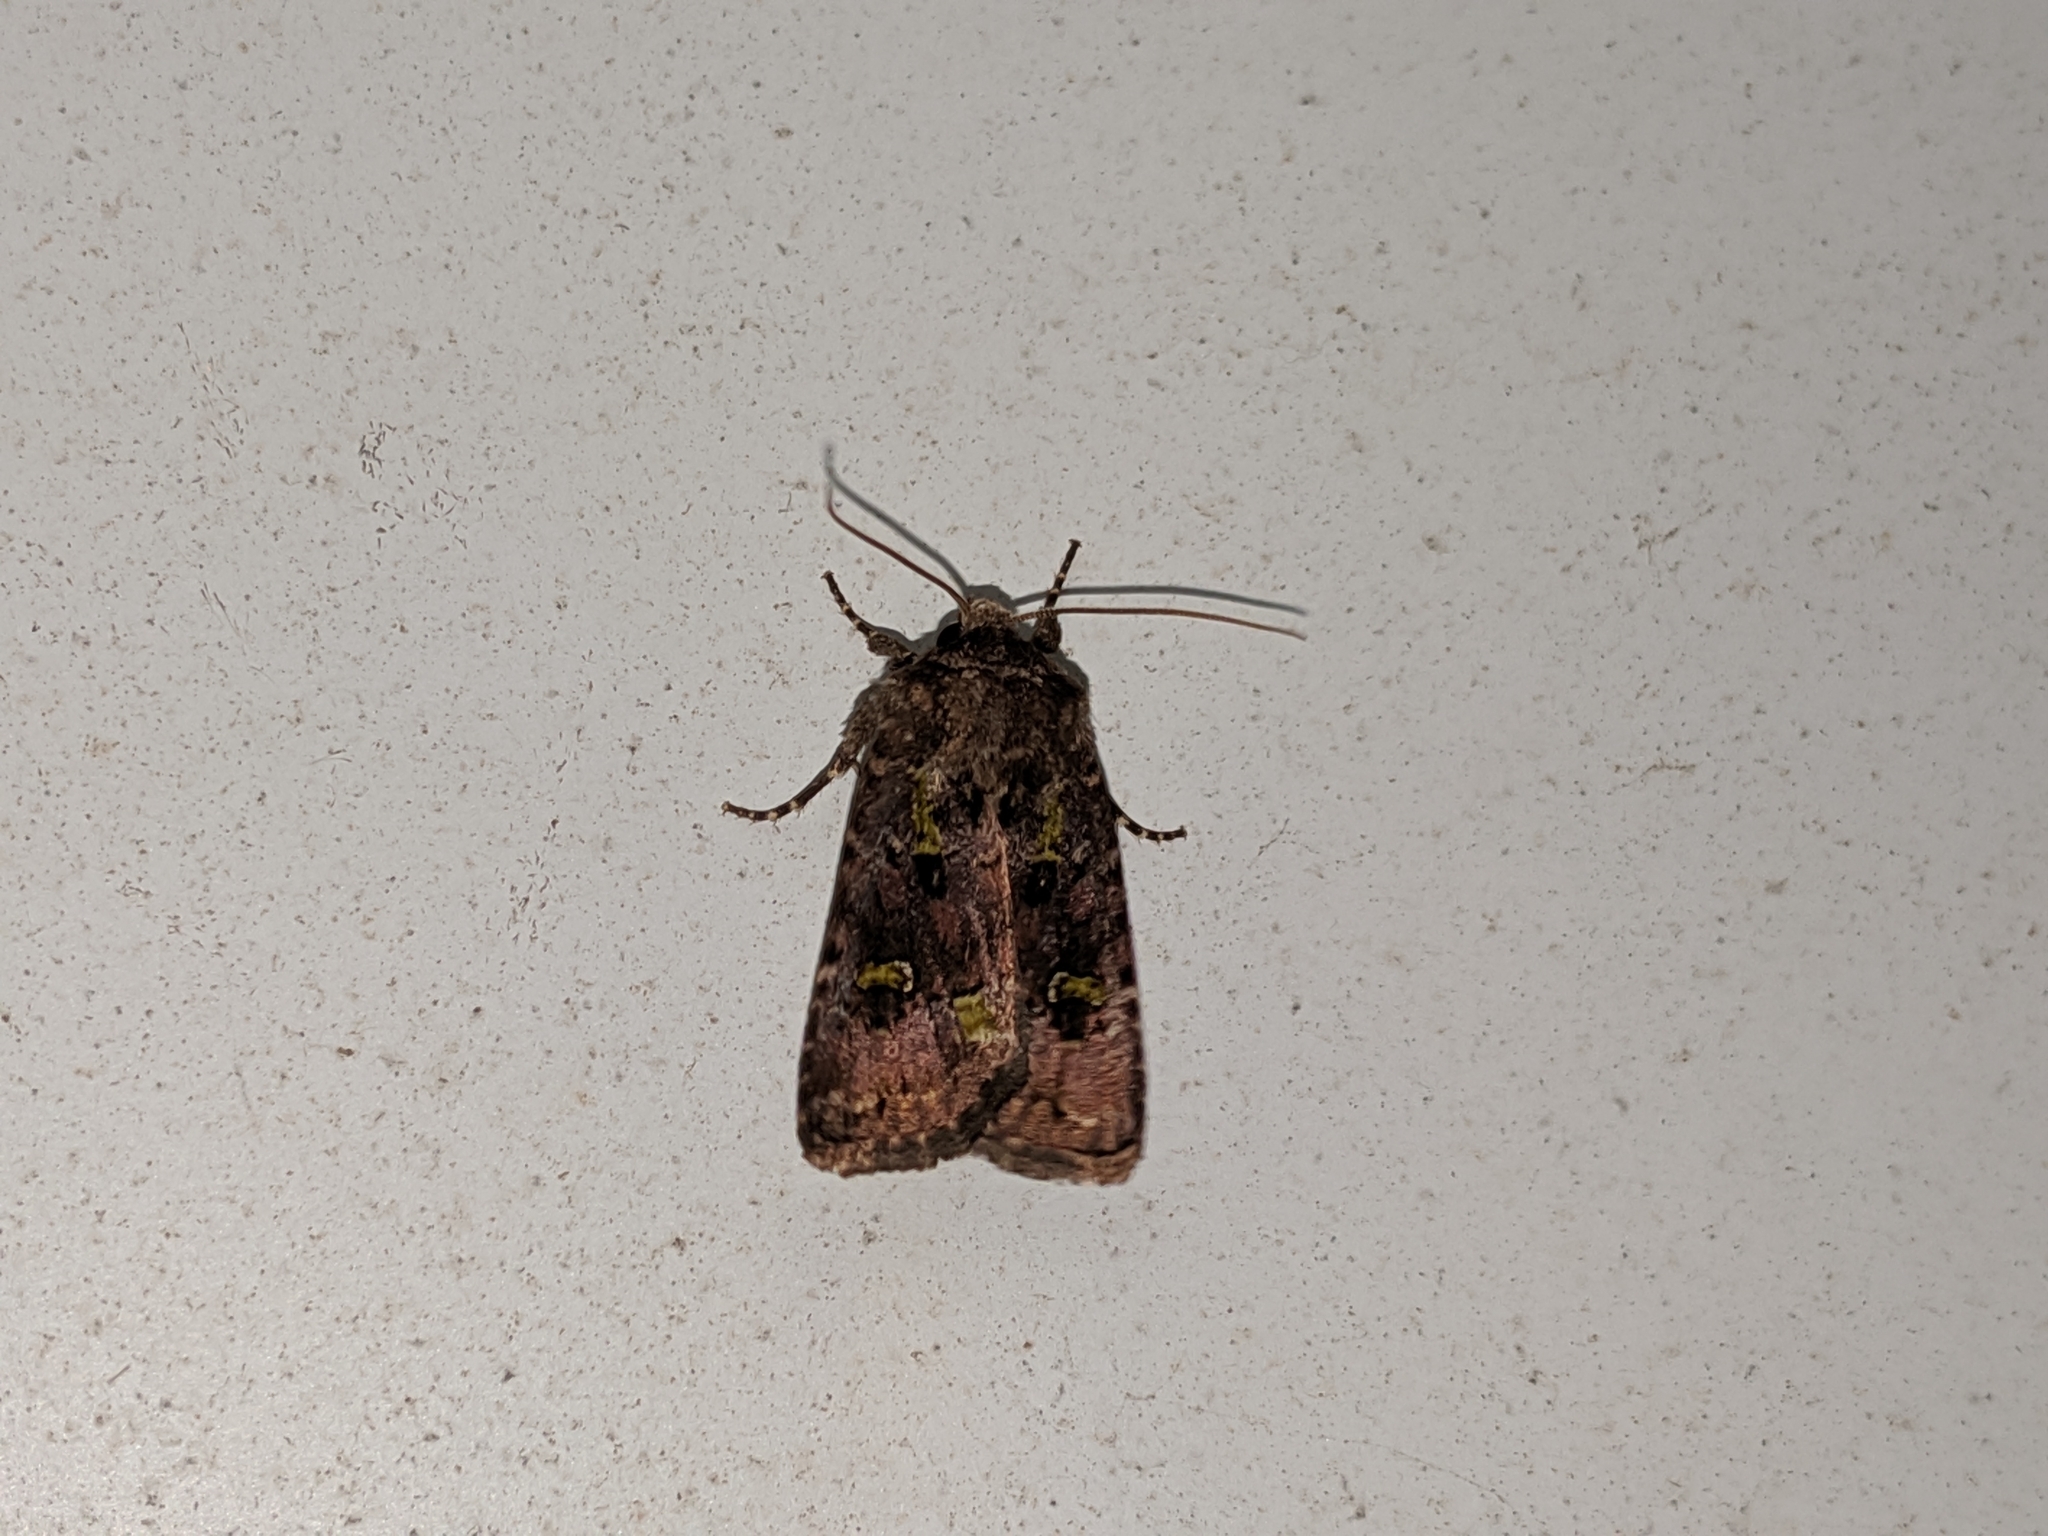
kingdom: Animalia
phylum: Arthropoda
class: Insecta
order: Lepidoptera
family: Noctuidae
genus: Lacinipolia
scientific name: Lacinipolia renigera
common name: Kidney-spotted minor
